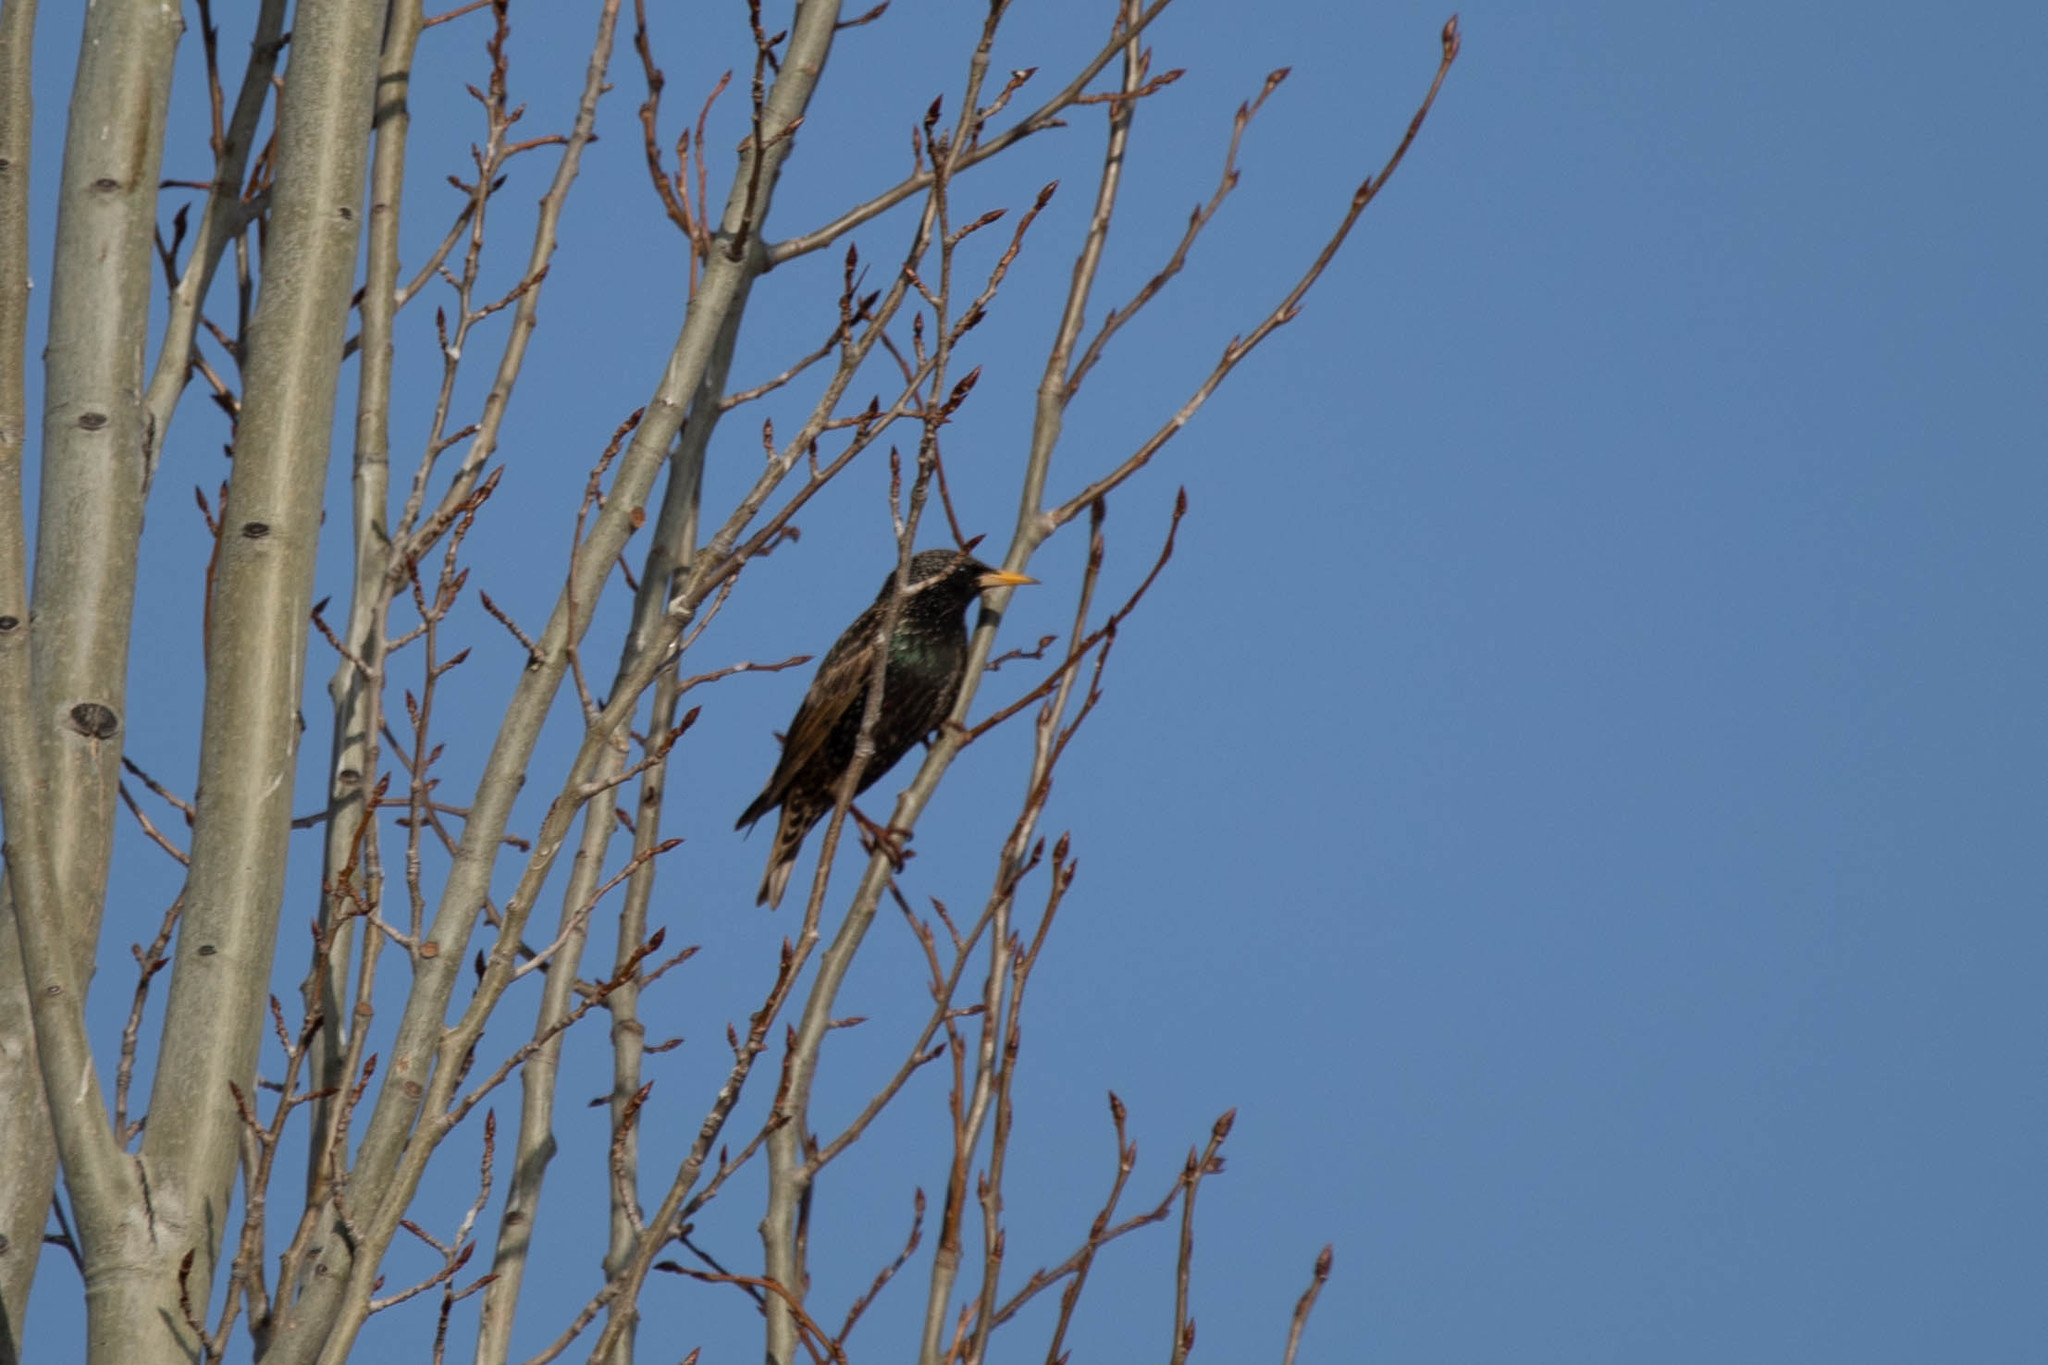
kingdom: Animalia
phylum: Chordata
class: Aves
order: Passeriformes
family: Sturnidae
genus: Sturnus
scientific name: Sturnus vulgaris
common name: Common starling
